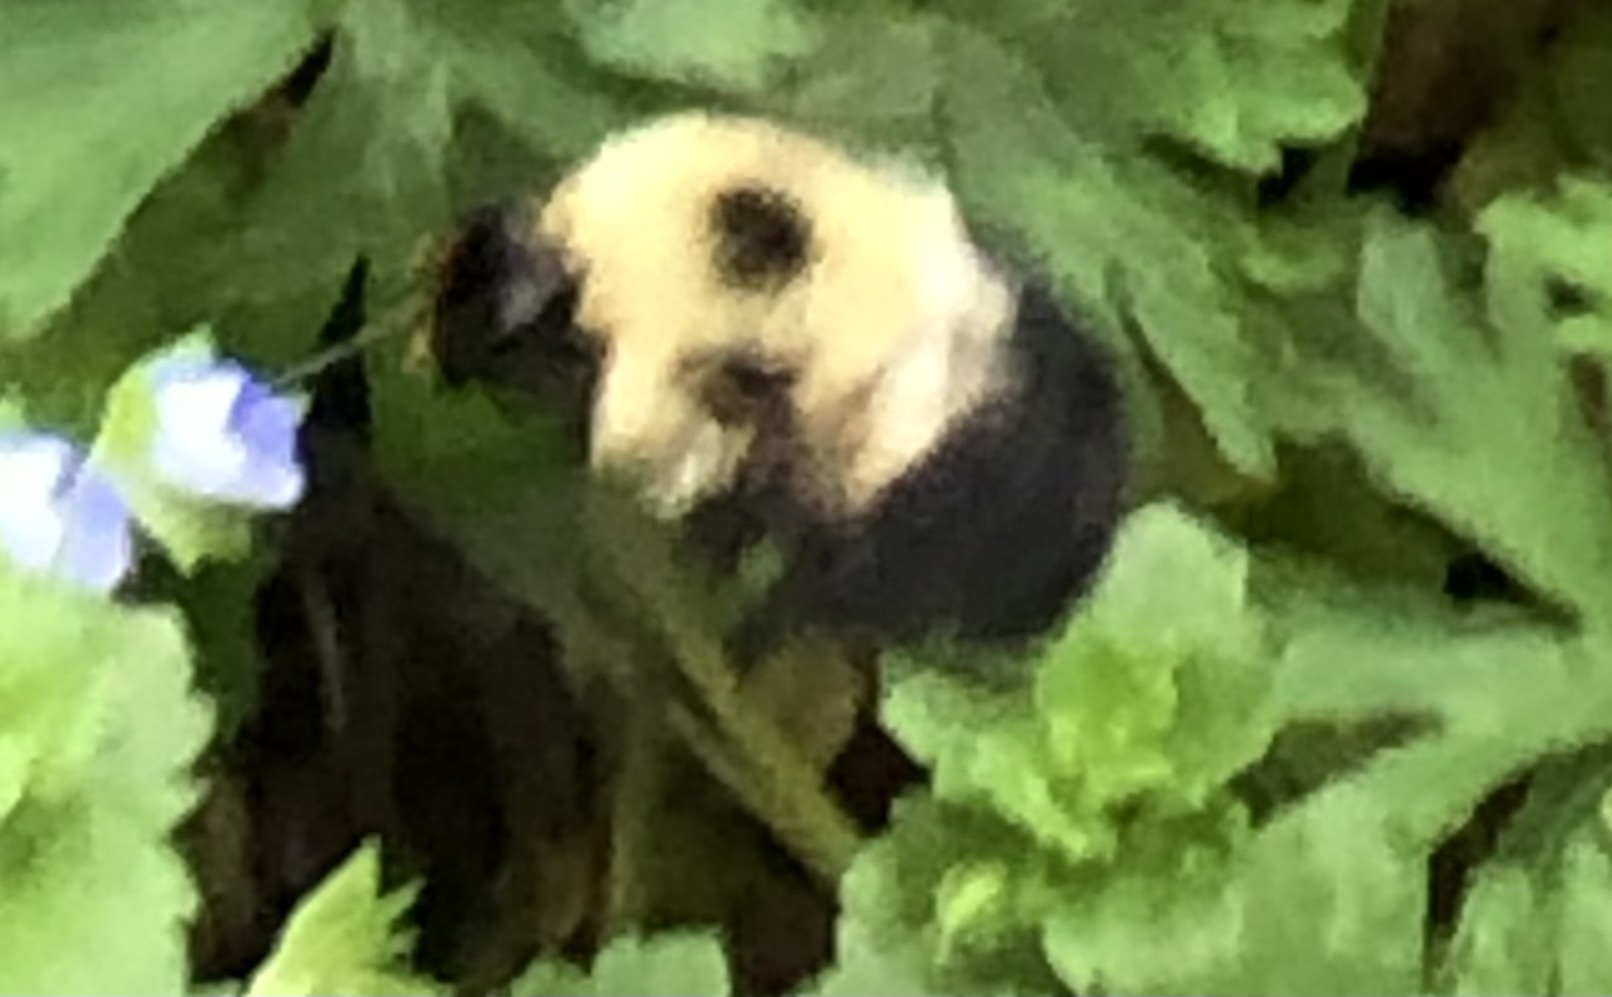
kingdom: Animalia
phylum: Arthropoda
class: Insecta
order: Hymenoptera
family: Apidae
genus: Bombus
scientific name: Bombus bimaculatus
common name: Two-spotted bumble bee
